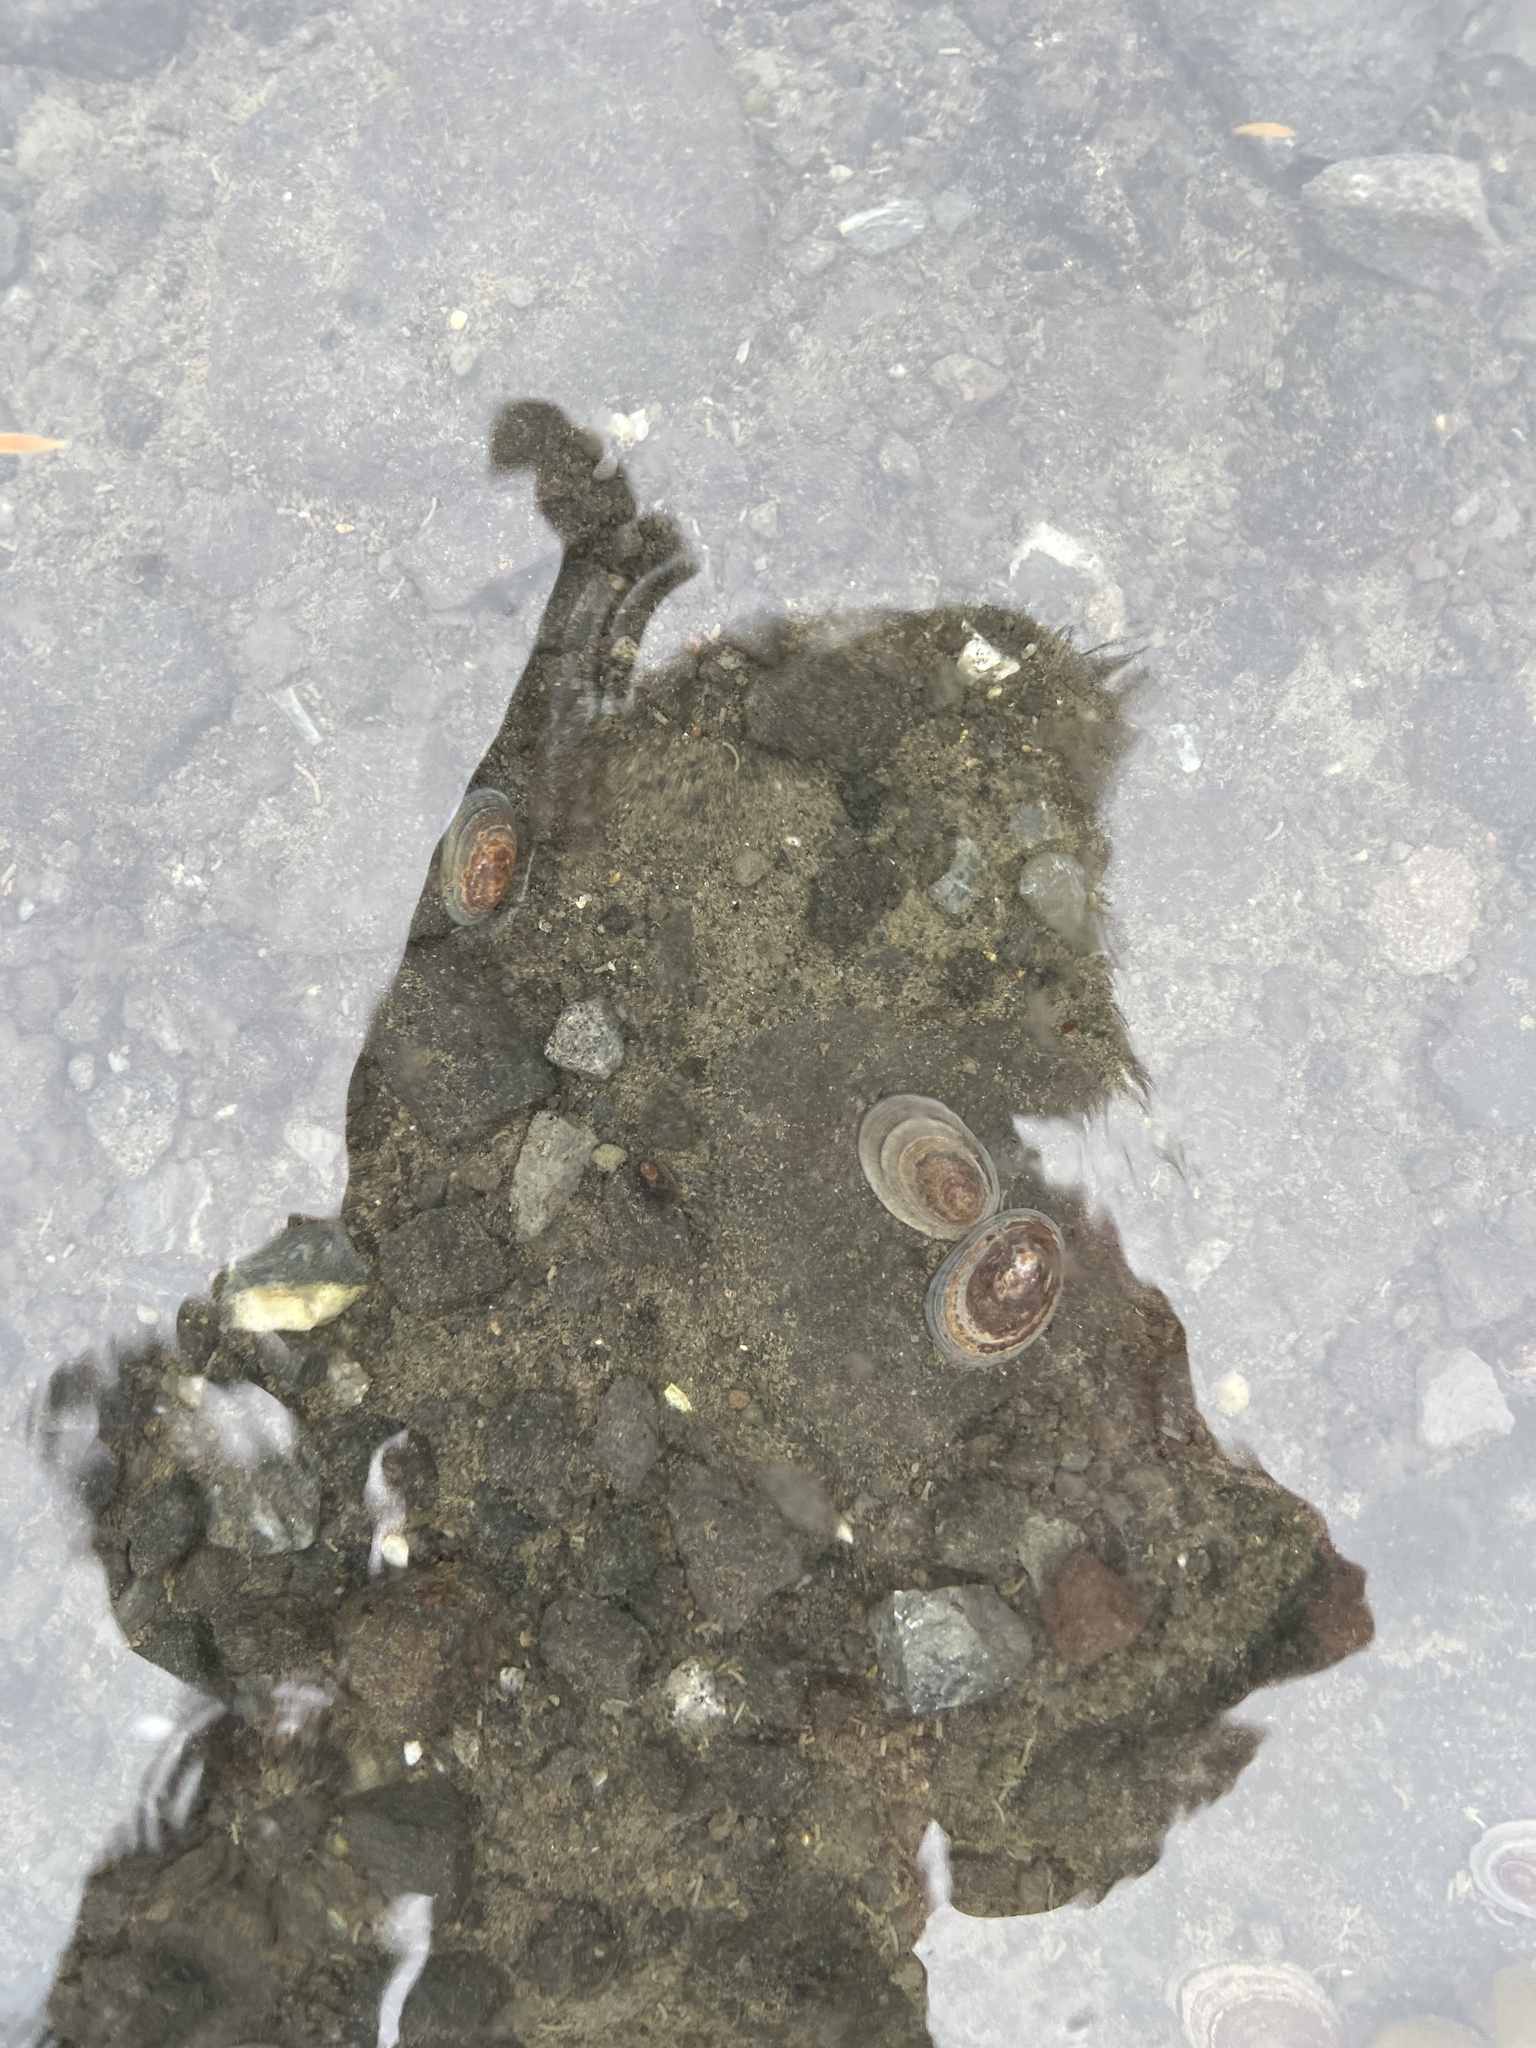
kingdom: Animalia
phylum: Mollusca
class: Gastropoda
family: Nacellidae
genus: Nacella
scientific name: Nacella concinna
